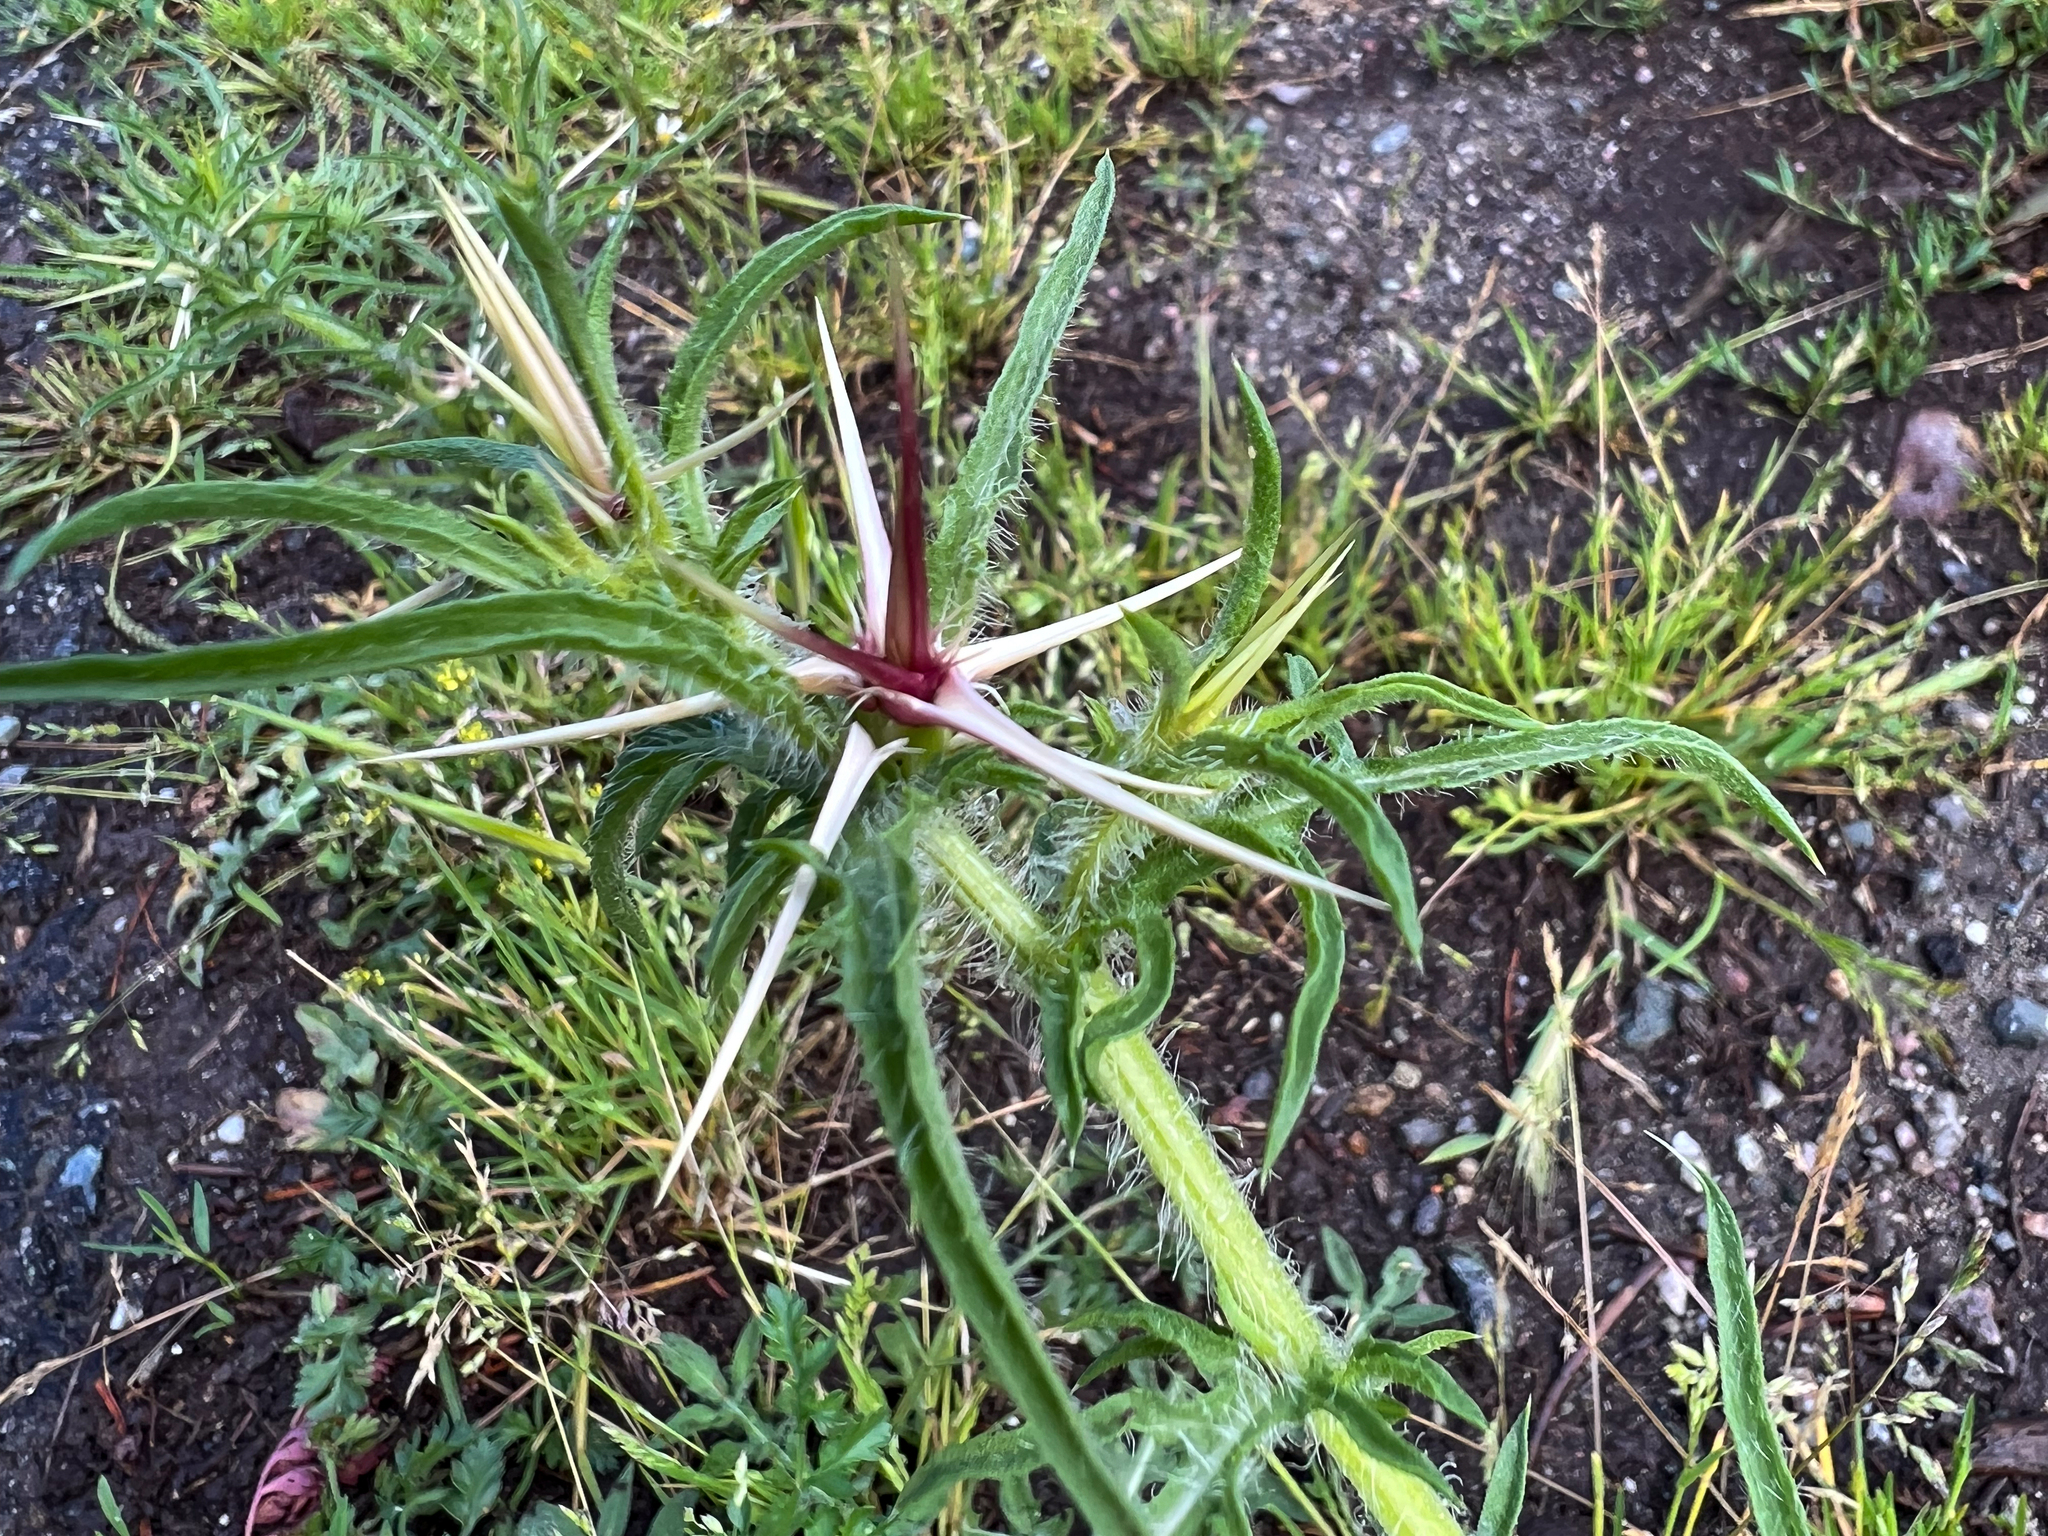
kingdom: Plantae
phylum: Tracheophyta
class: Magnoliopsida
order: Asterales
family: Asteraceae
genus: Centaurea
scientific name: Centaurea calcitrapa
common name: Red star-thistle
